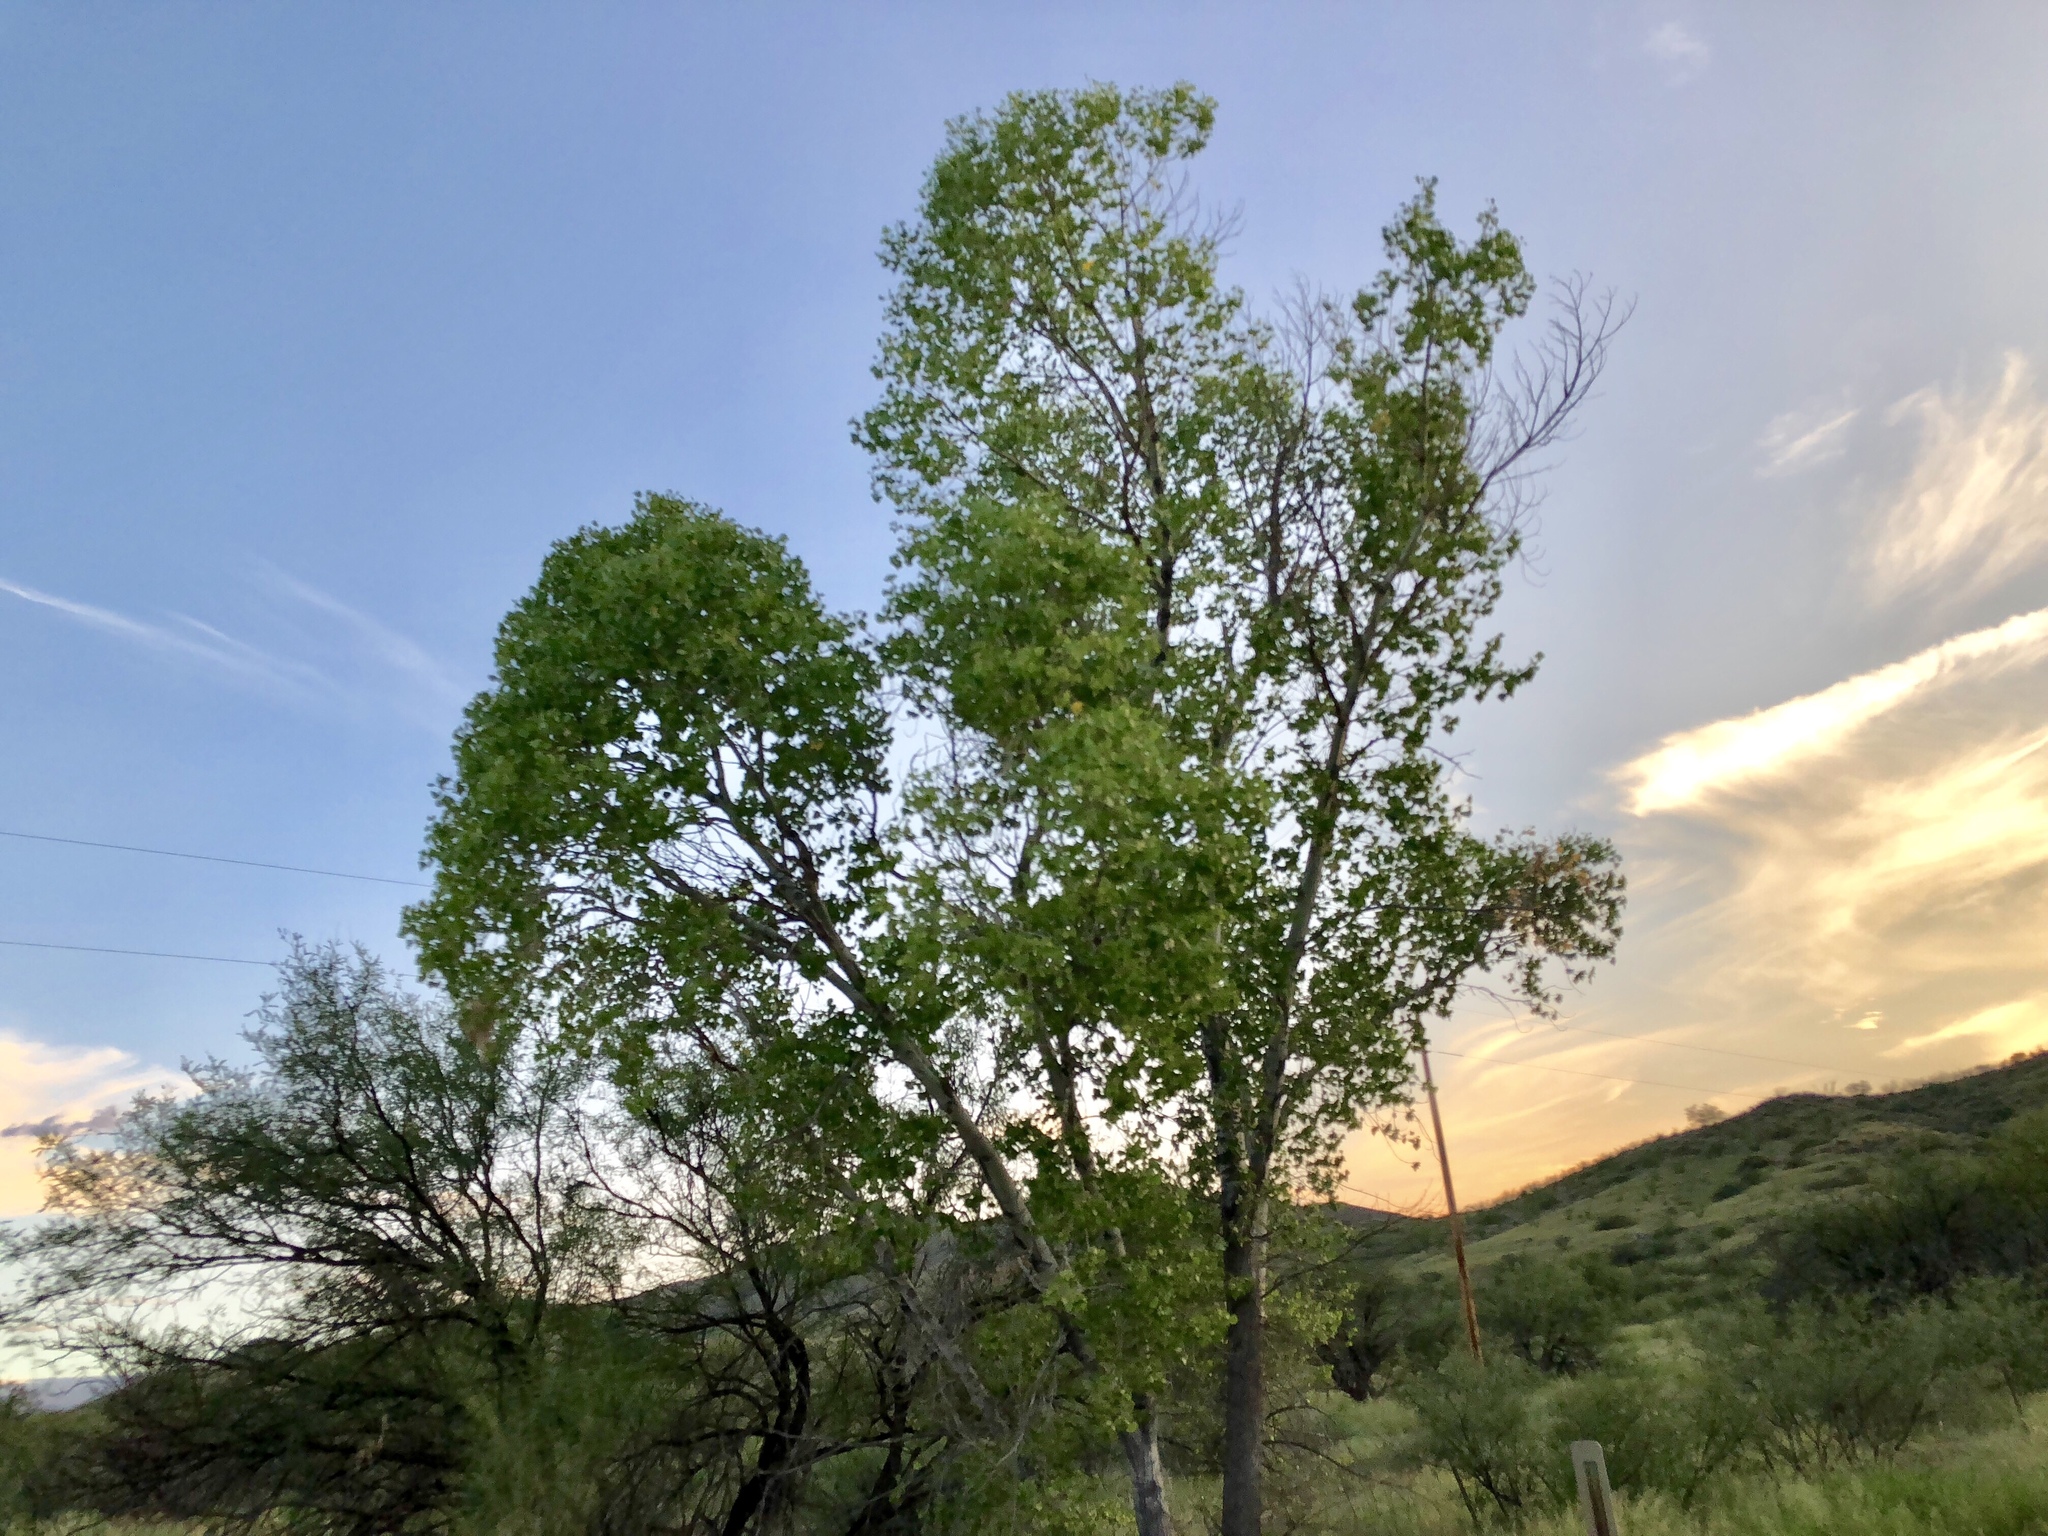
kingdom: Plantae
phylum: Tracheophyta
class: Magnoliopsida
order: Malpighiales
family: Salicaceae
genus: Populus
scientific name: Populus fremontii
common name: Fremont's cottonwood
